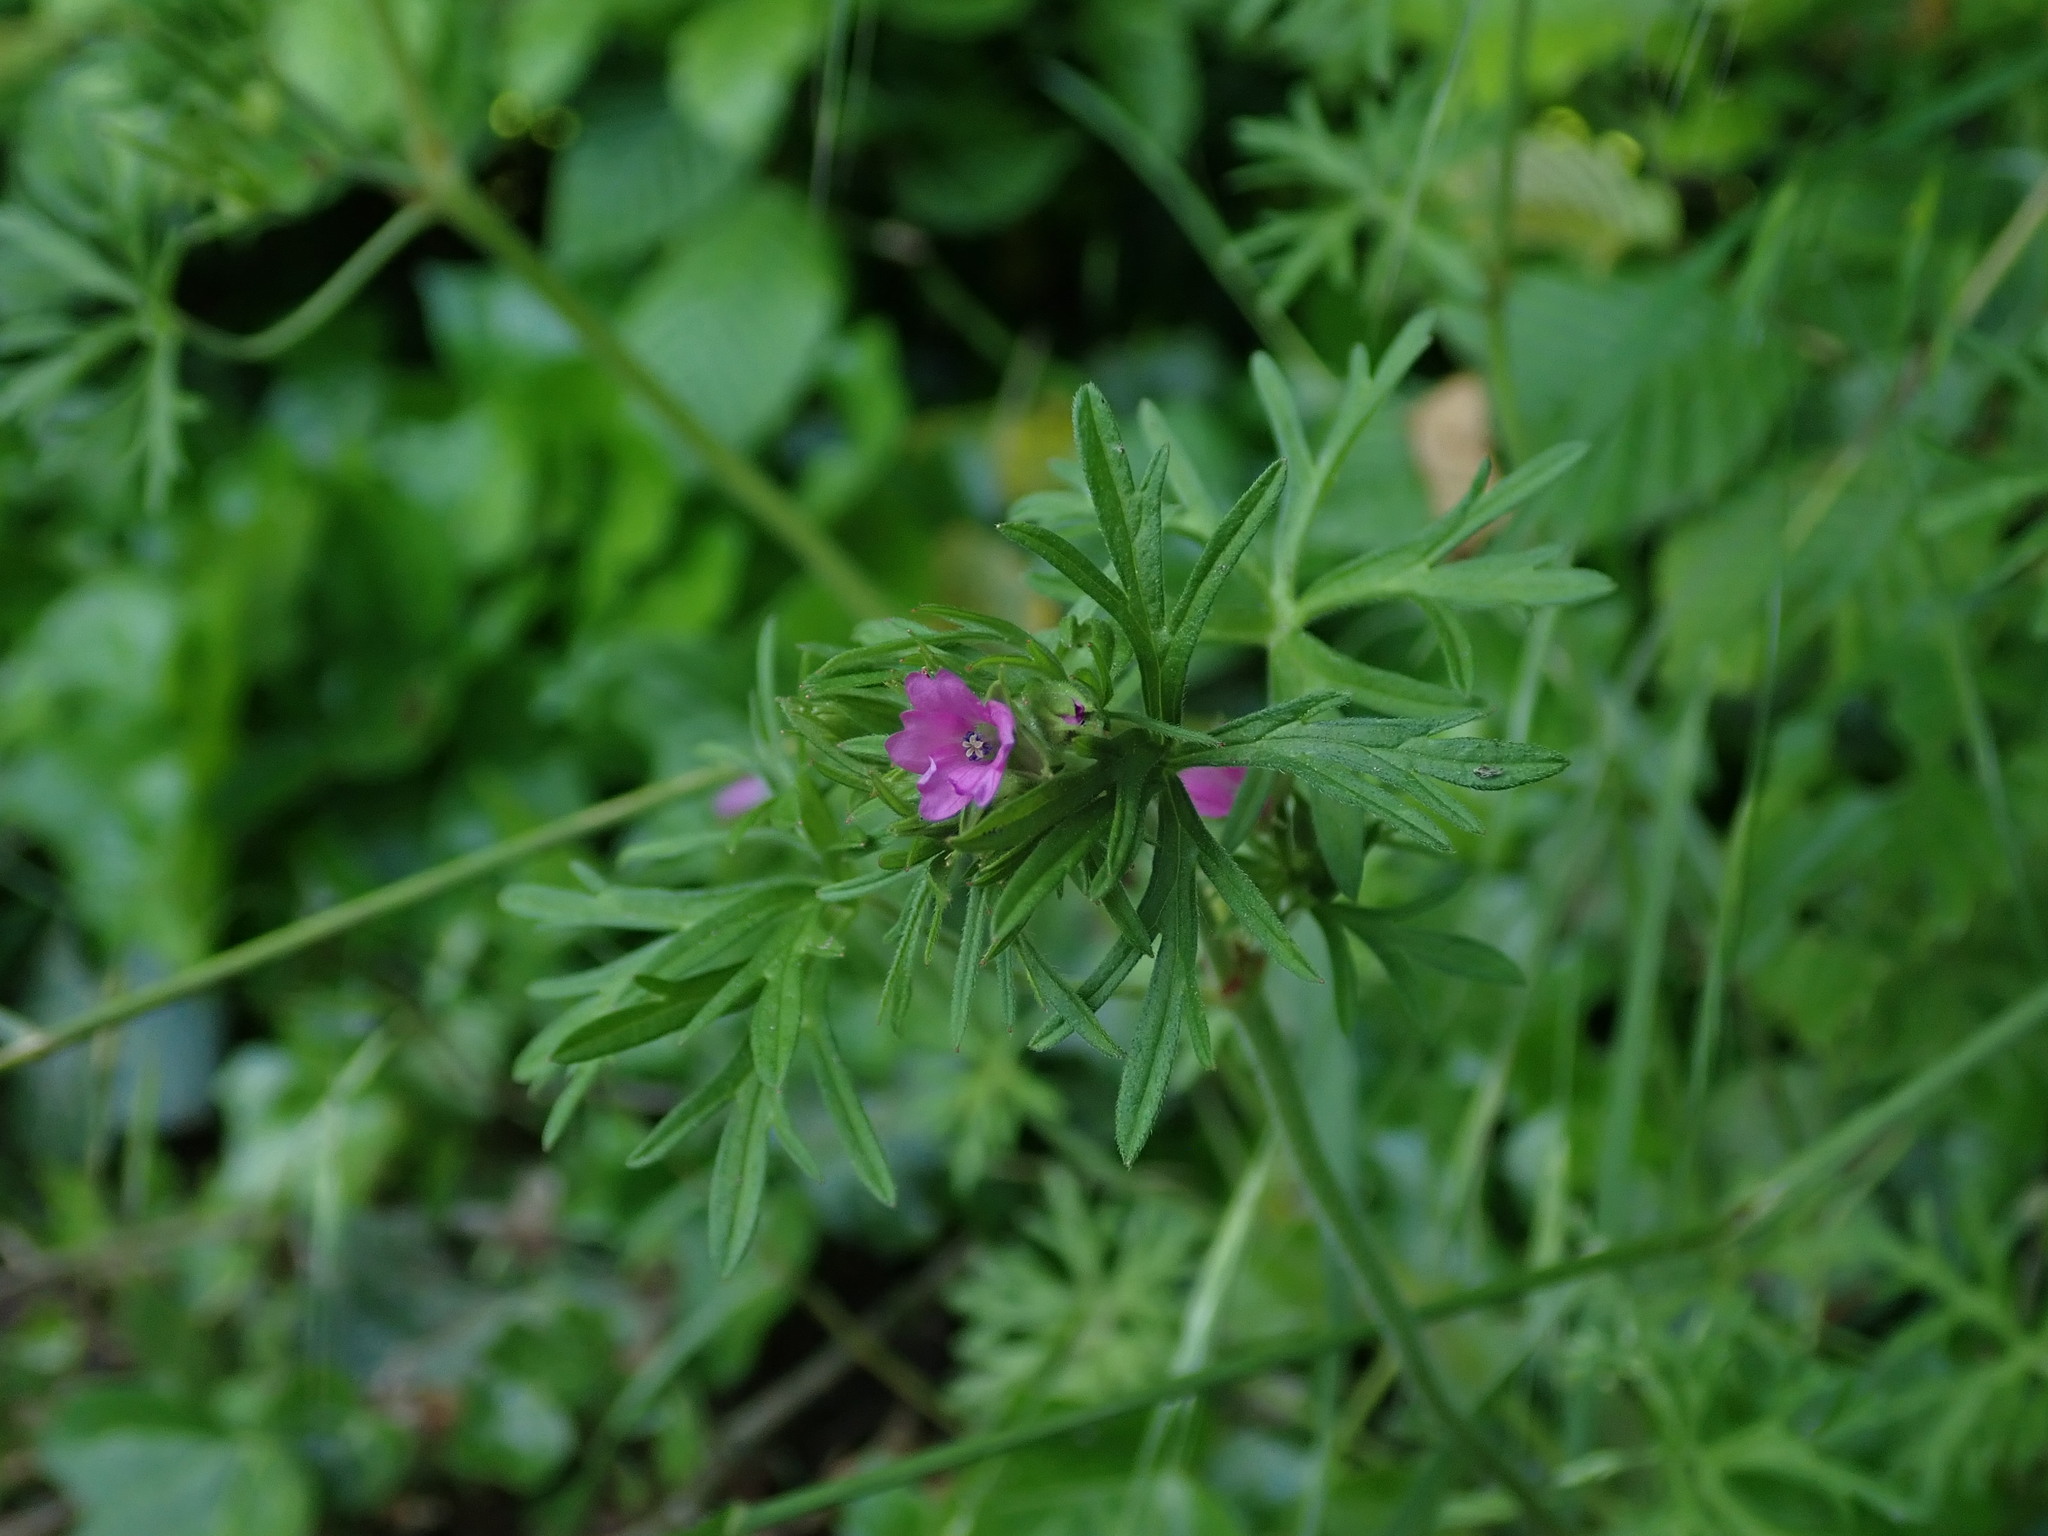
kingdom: Plantae
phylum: Tracheophyta
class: Magnoliopsida
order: Geraniales
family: Geraniaceae
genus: Geranium
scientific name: Geranium dissectum
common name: Cut-leaved crane's-bill
